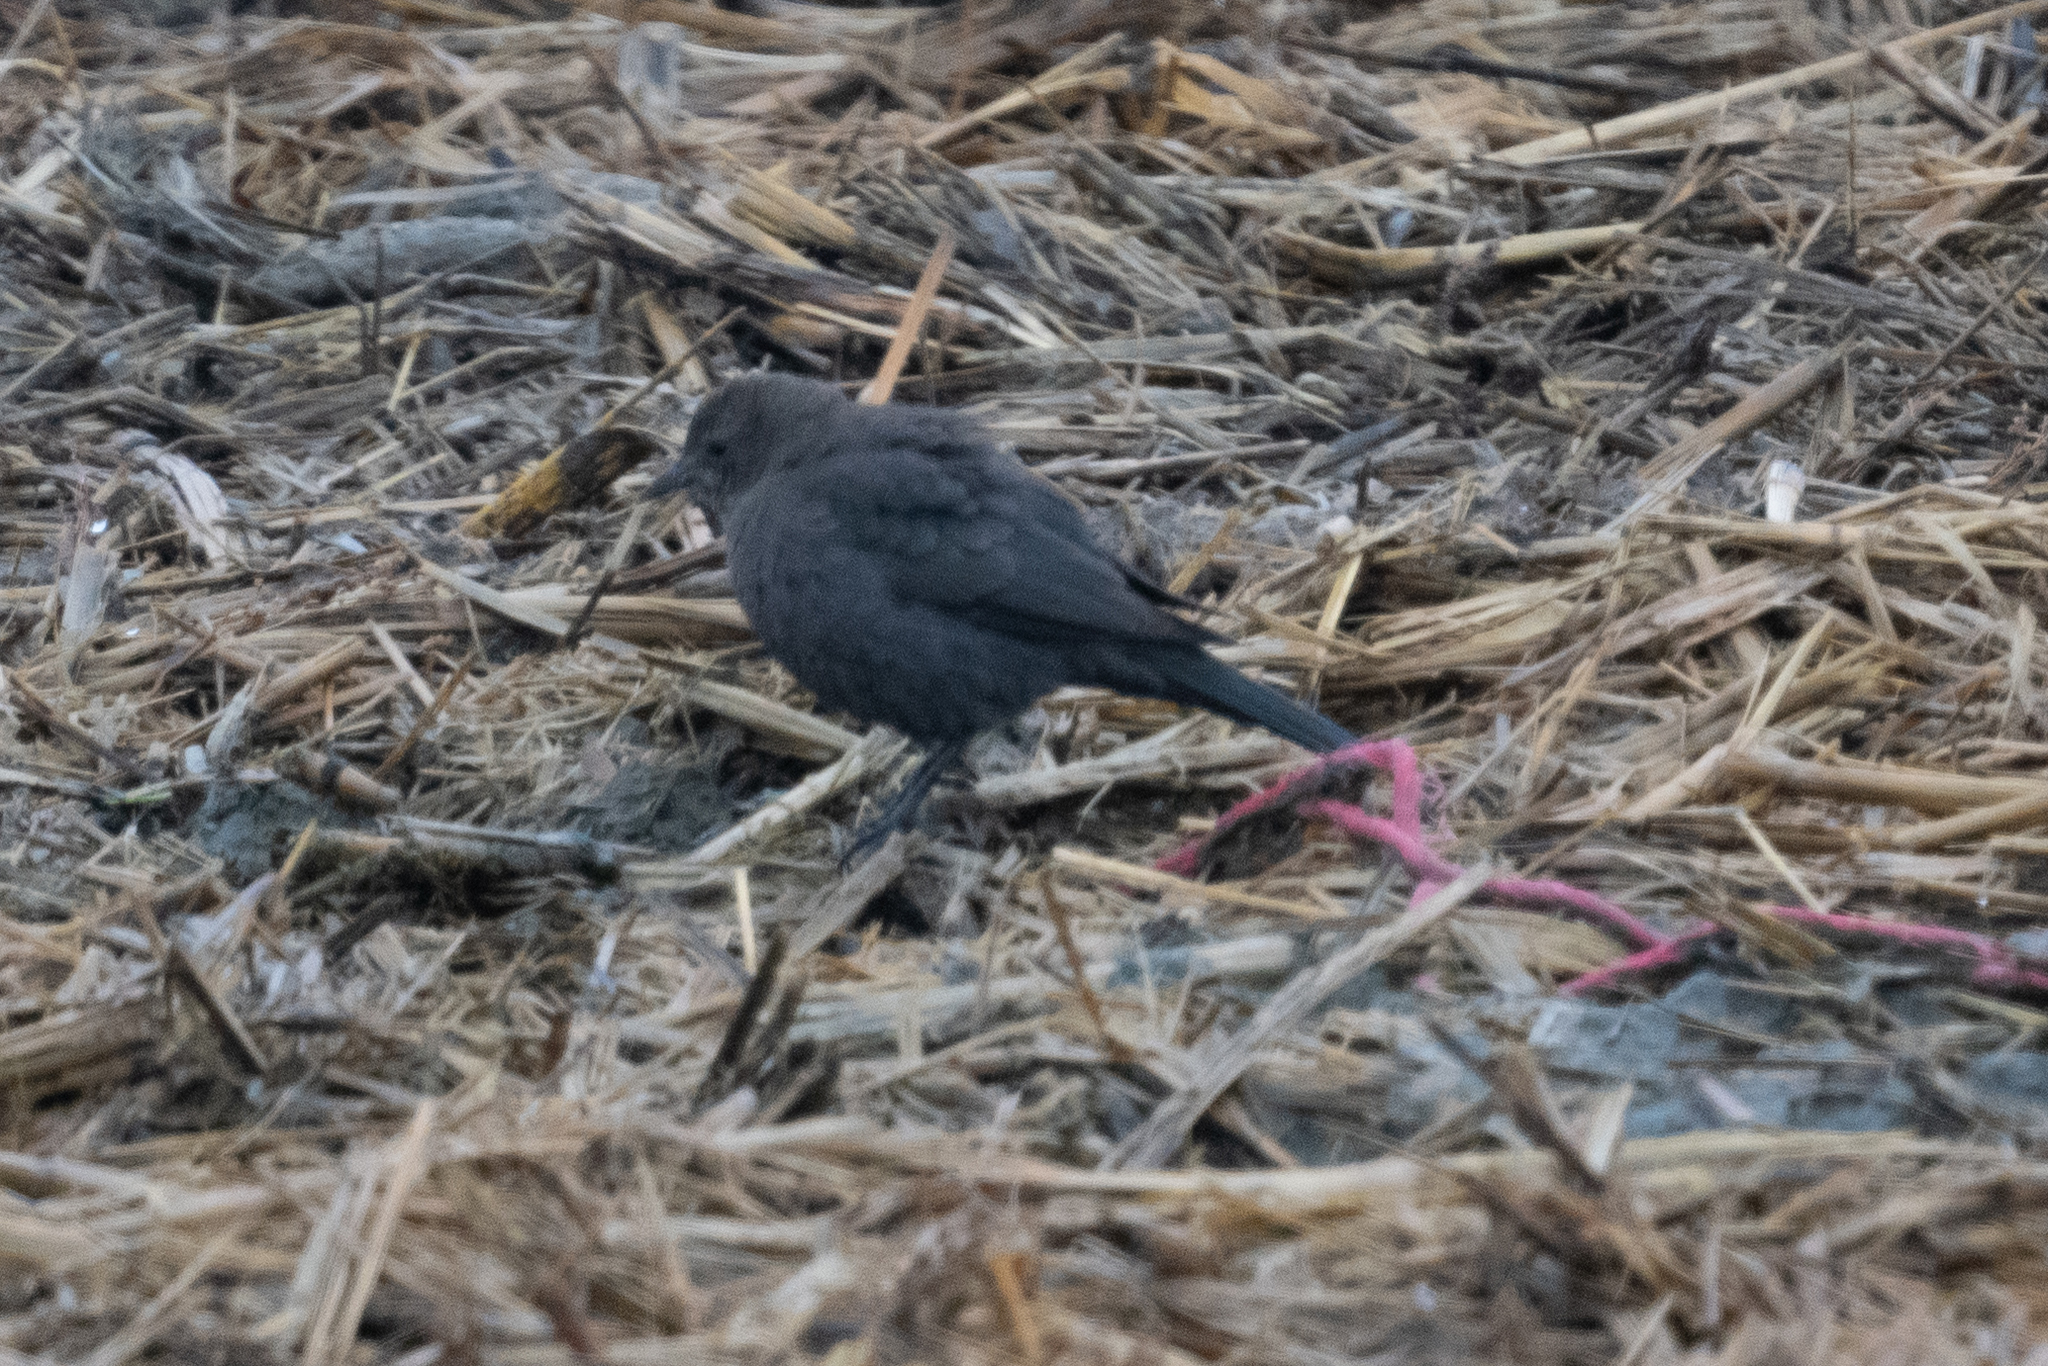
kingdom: Animalia
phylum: Chordata
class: Aves
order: Passeriformes
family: Icteridae
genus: Euphagus
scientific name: Euphagus cyanocephalus
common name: Brewer's blackbird
